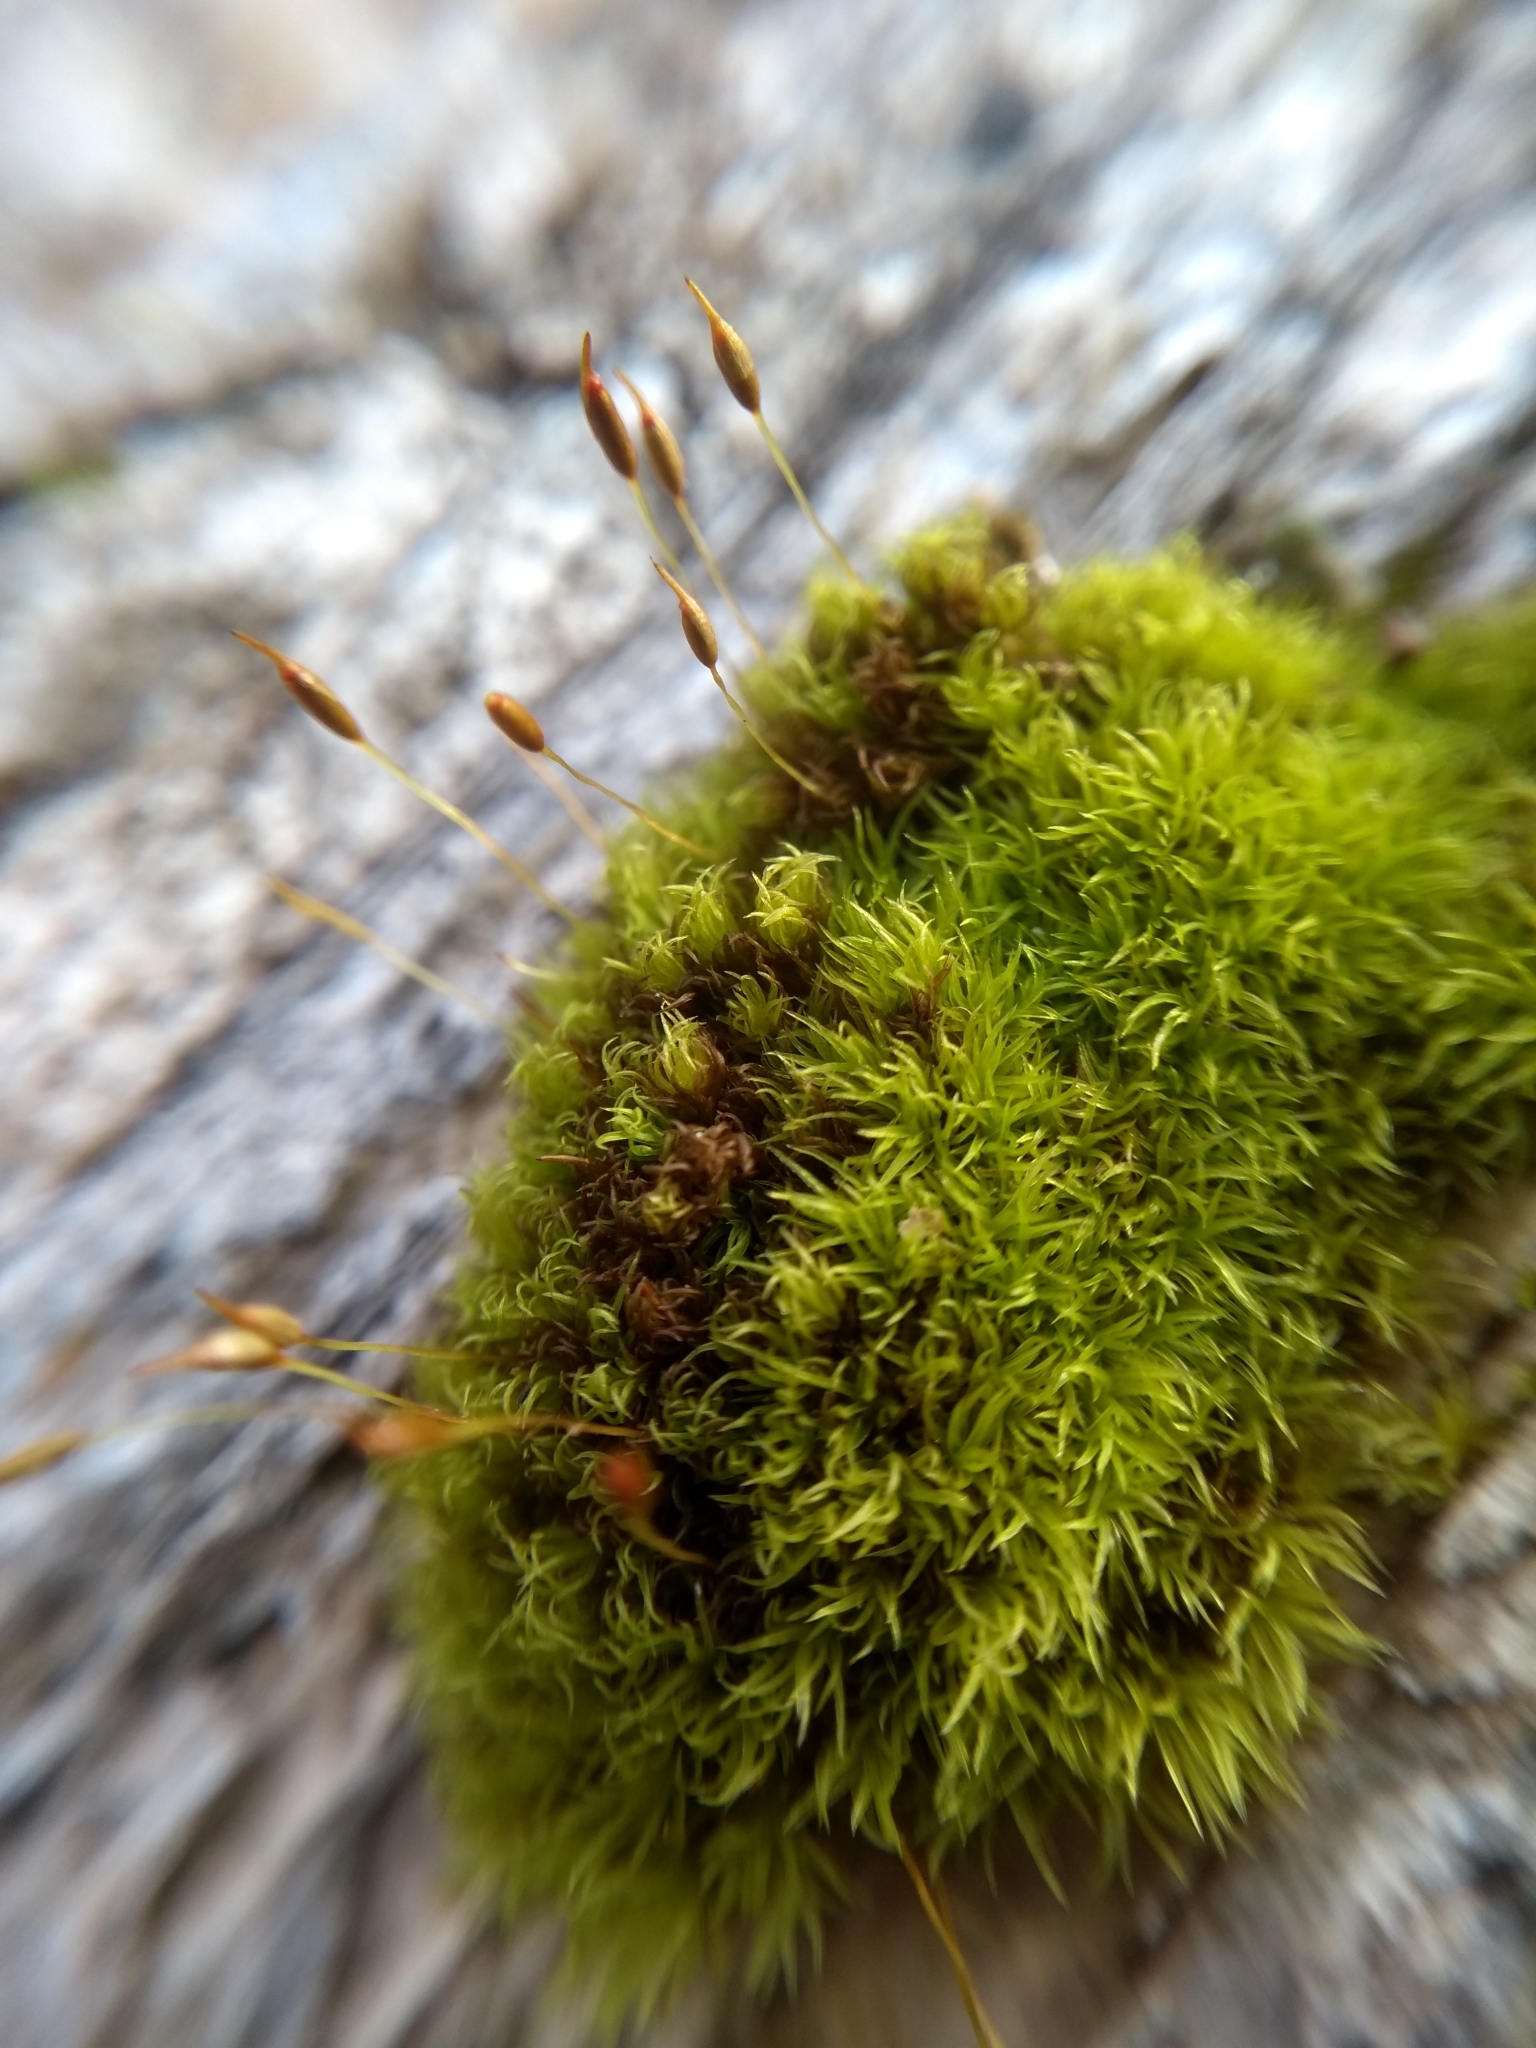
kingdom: Plantae
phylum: Bryophyta
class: Bryopsida
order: Dicranales
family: Rhabdoweisiaceae
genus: Dicranoweisia
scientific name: Dicranoweisia cirrata
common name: Common pincushion
